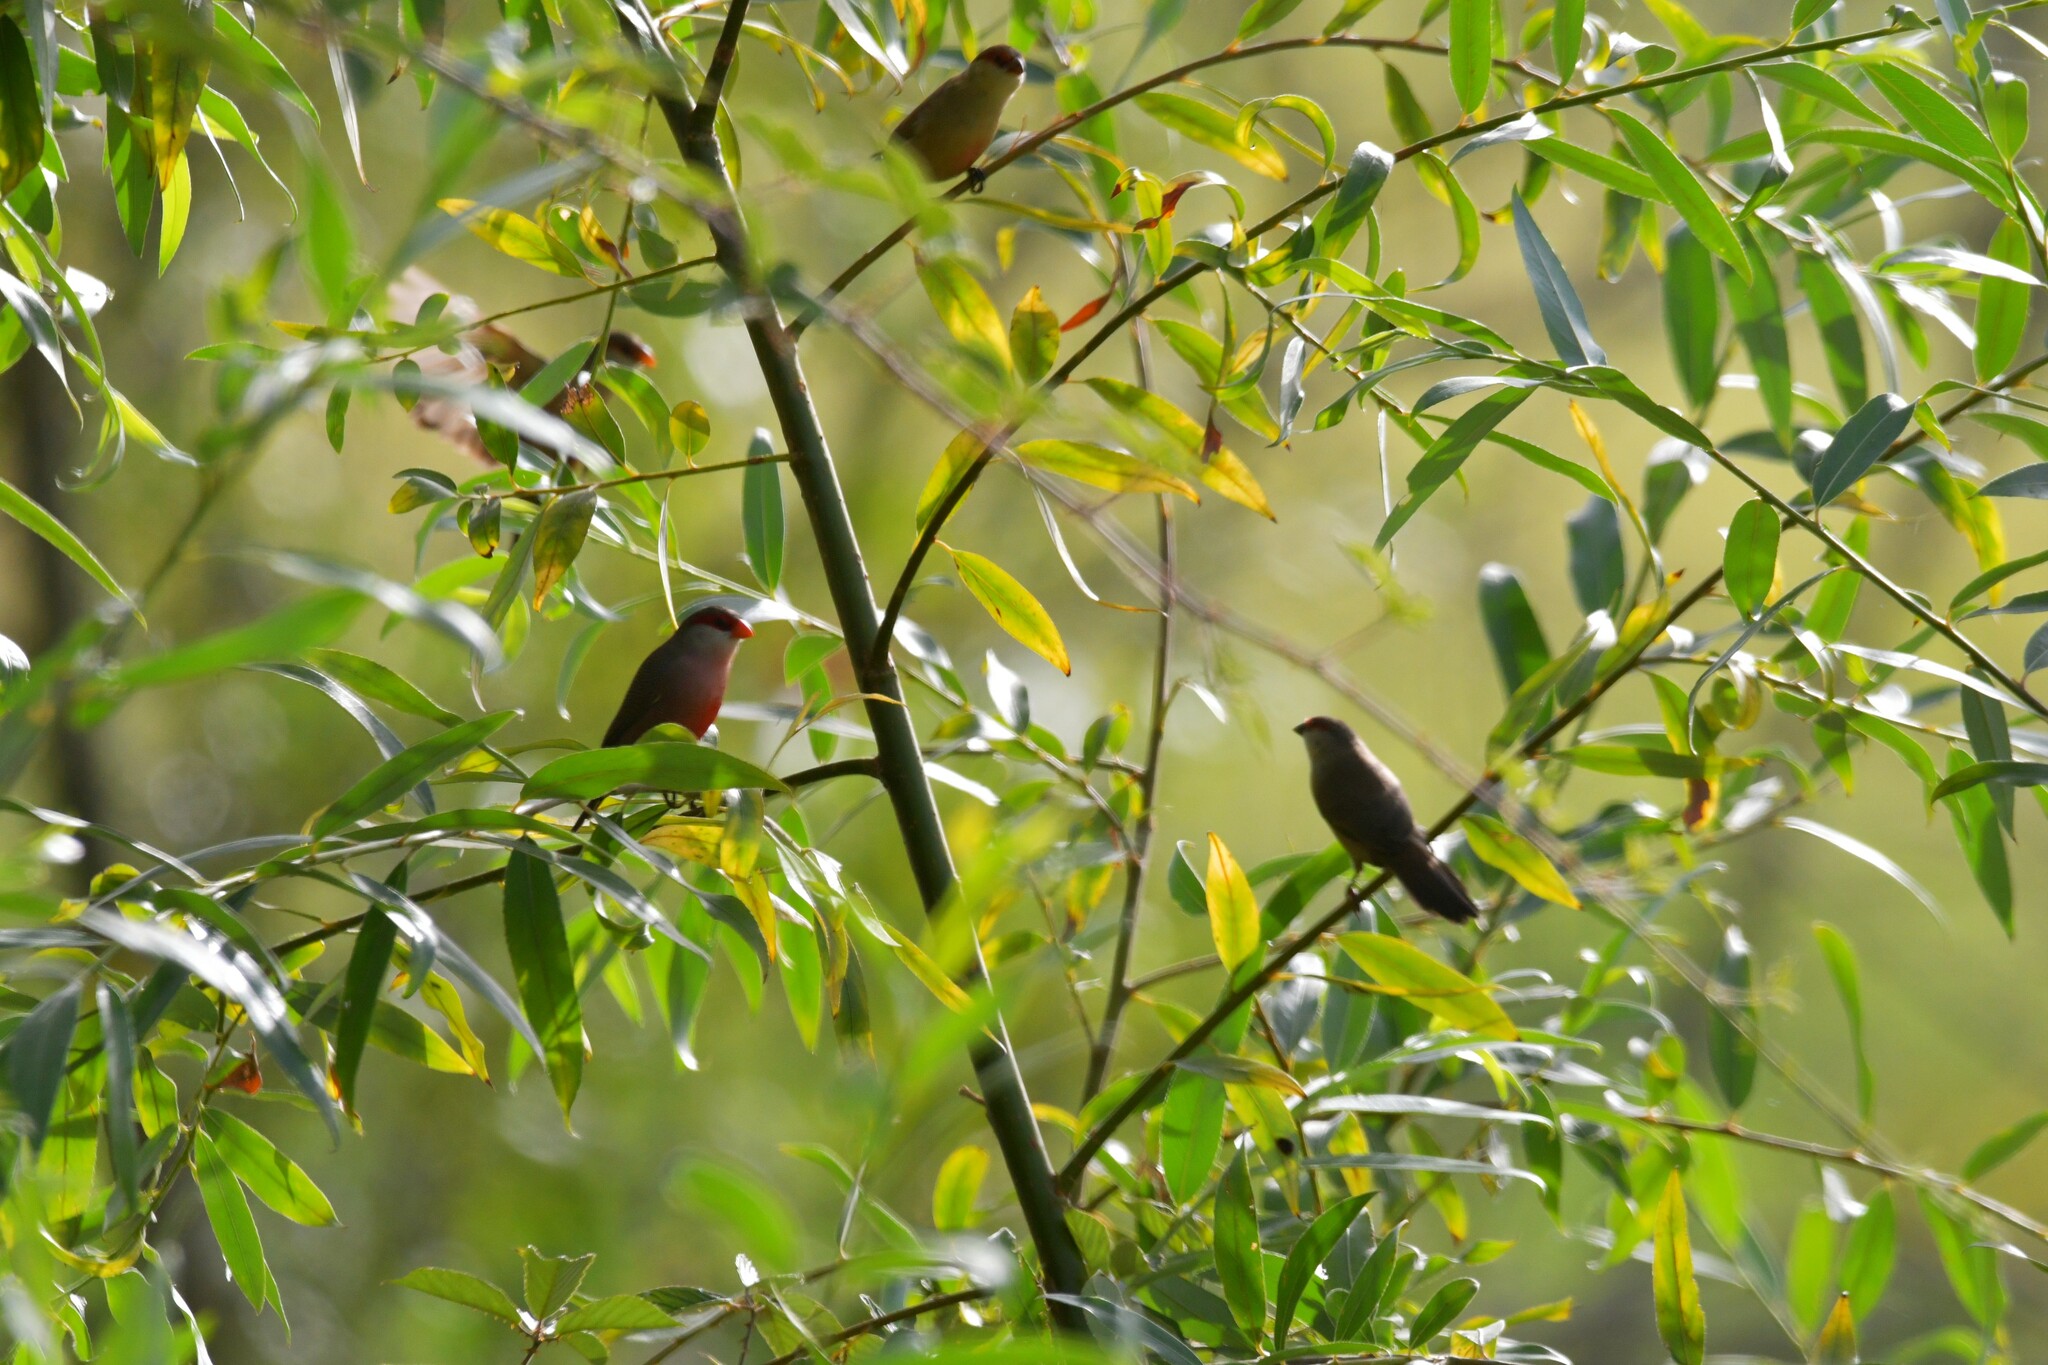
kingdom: Animalia
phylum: Chordata
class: Aves
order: Passeriformes
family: Estrildidae
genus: Estrilda
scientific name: Estrilda astrild
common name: Common waxbill
